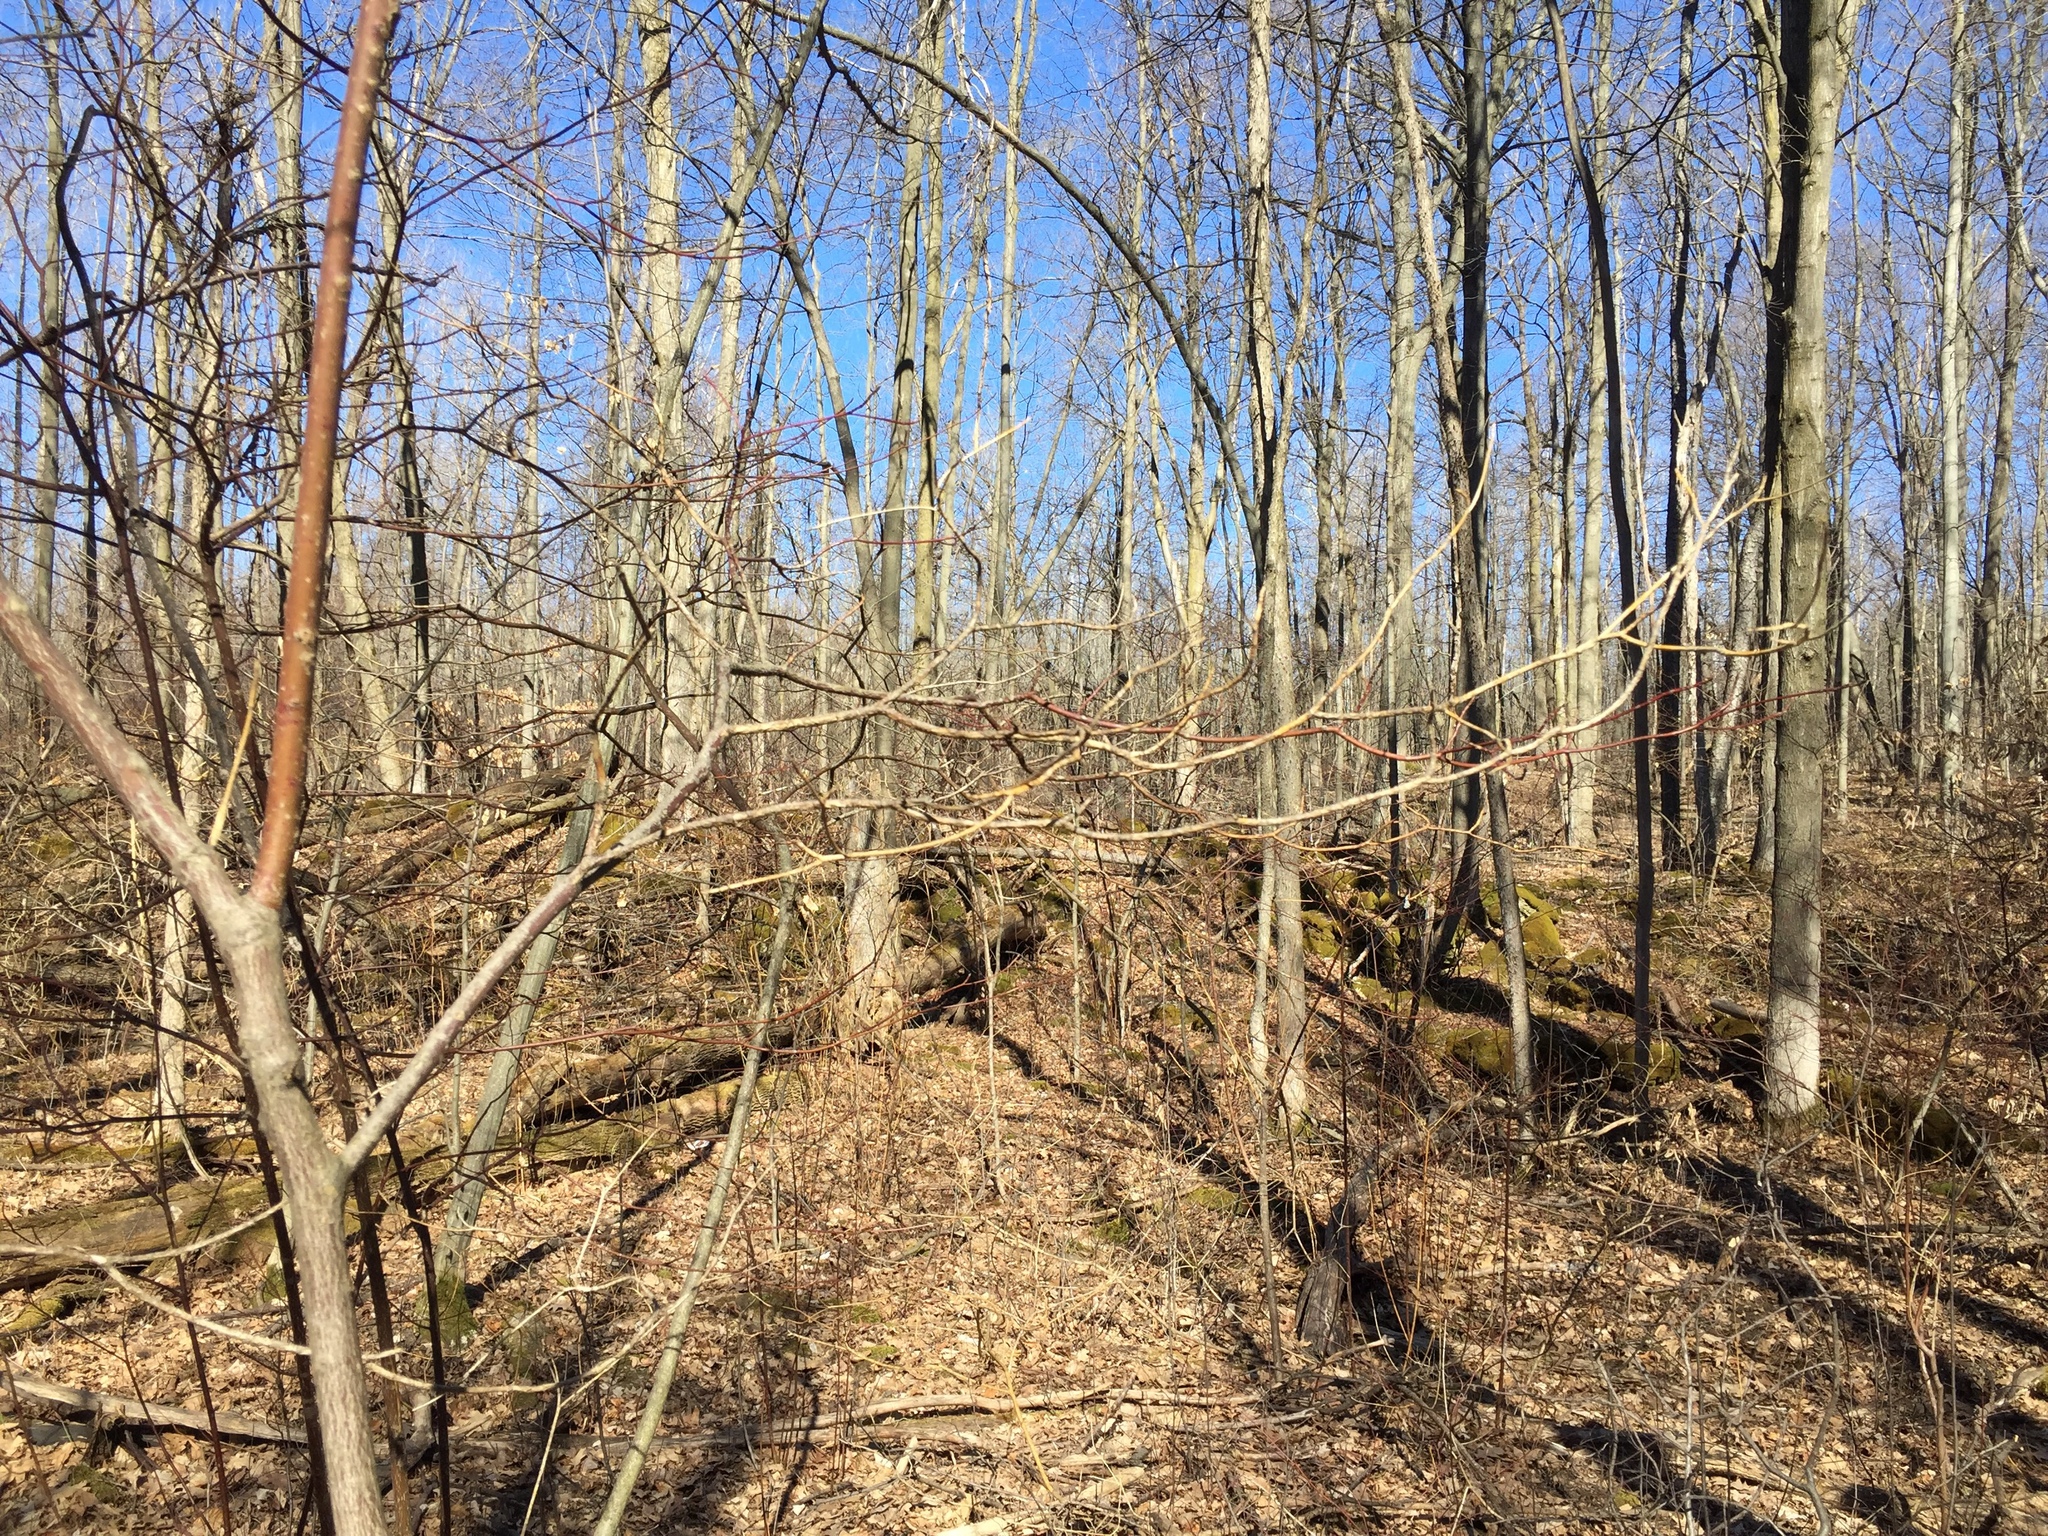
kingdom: Plantae
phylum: Tracheophyta
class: Magnoliopsida
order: Cornales
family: Cornaceae
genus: Cornus
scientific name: Cornus alternifolia
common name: Pagoda dogwood
